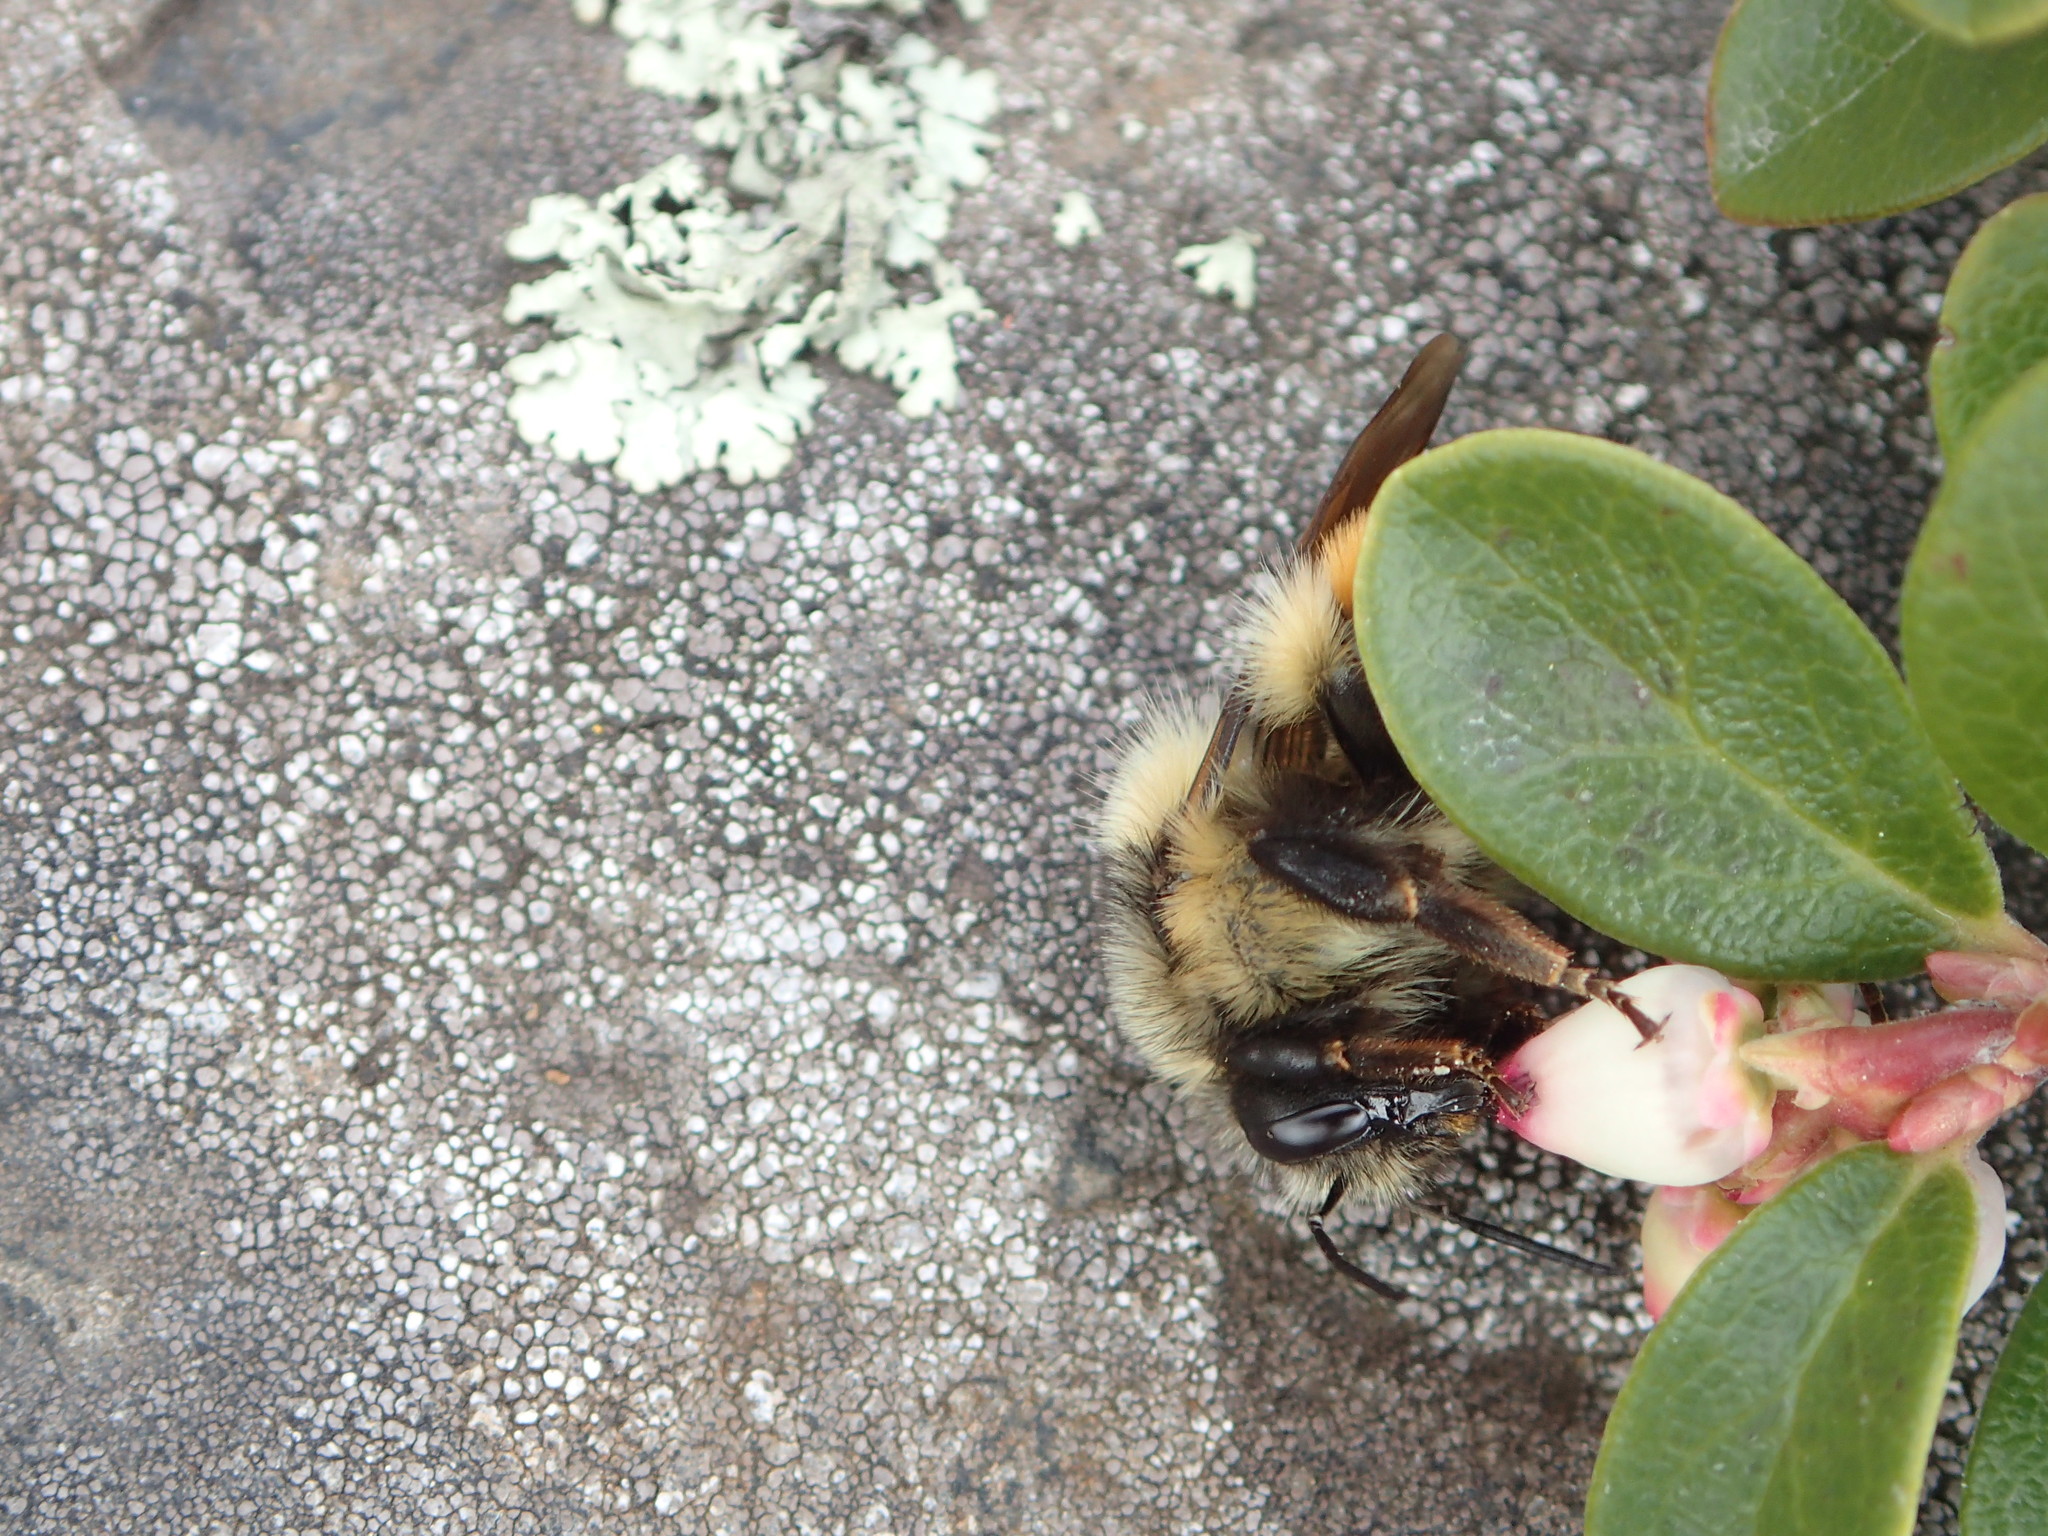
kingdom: Animalia
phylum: Arthropoda
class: Insecta
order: Hymenoptera
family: Apidae
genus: Bombus
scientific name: Bombus
